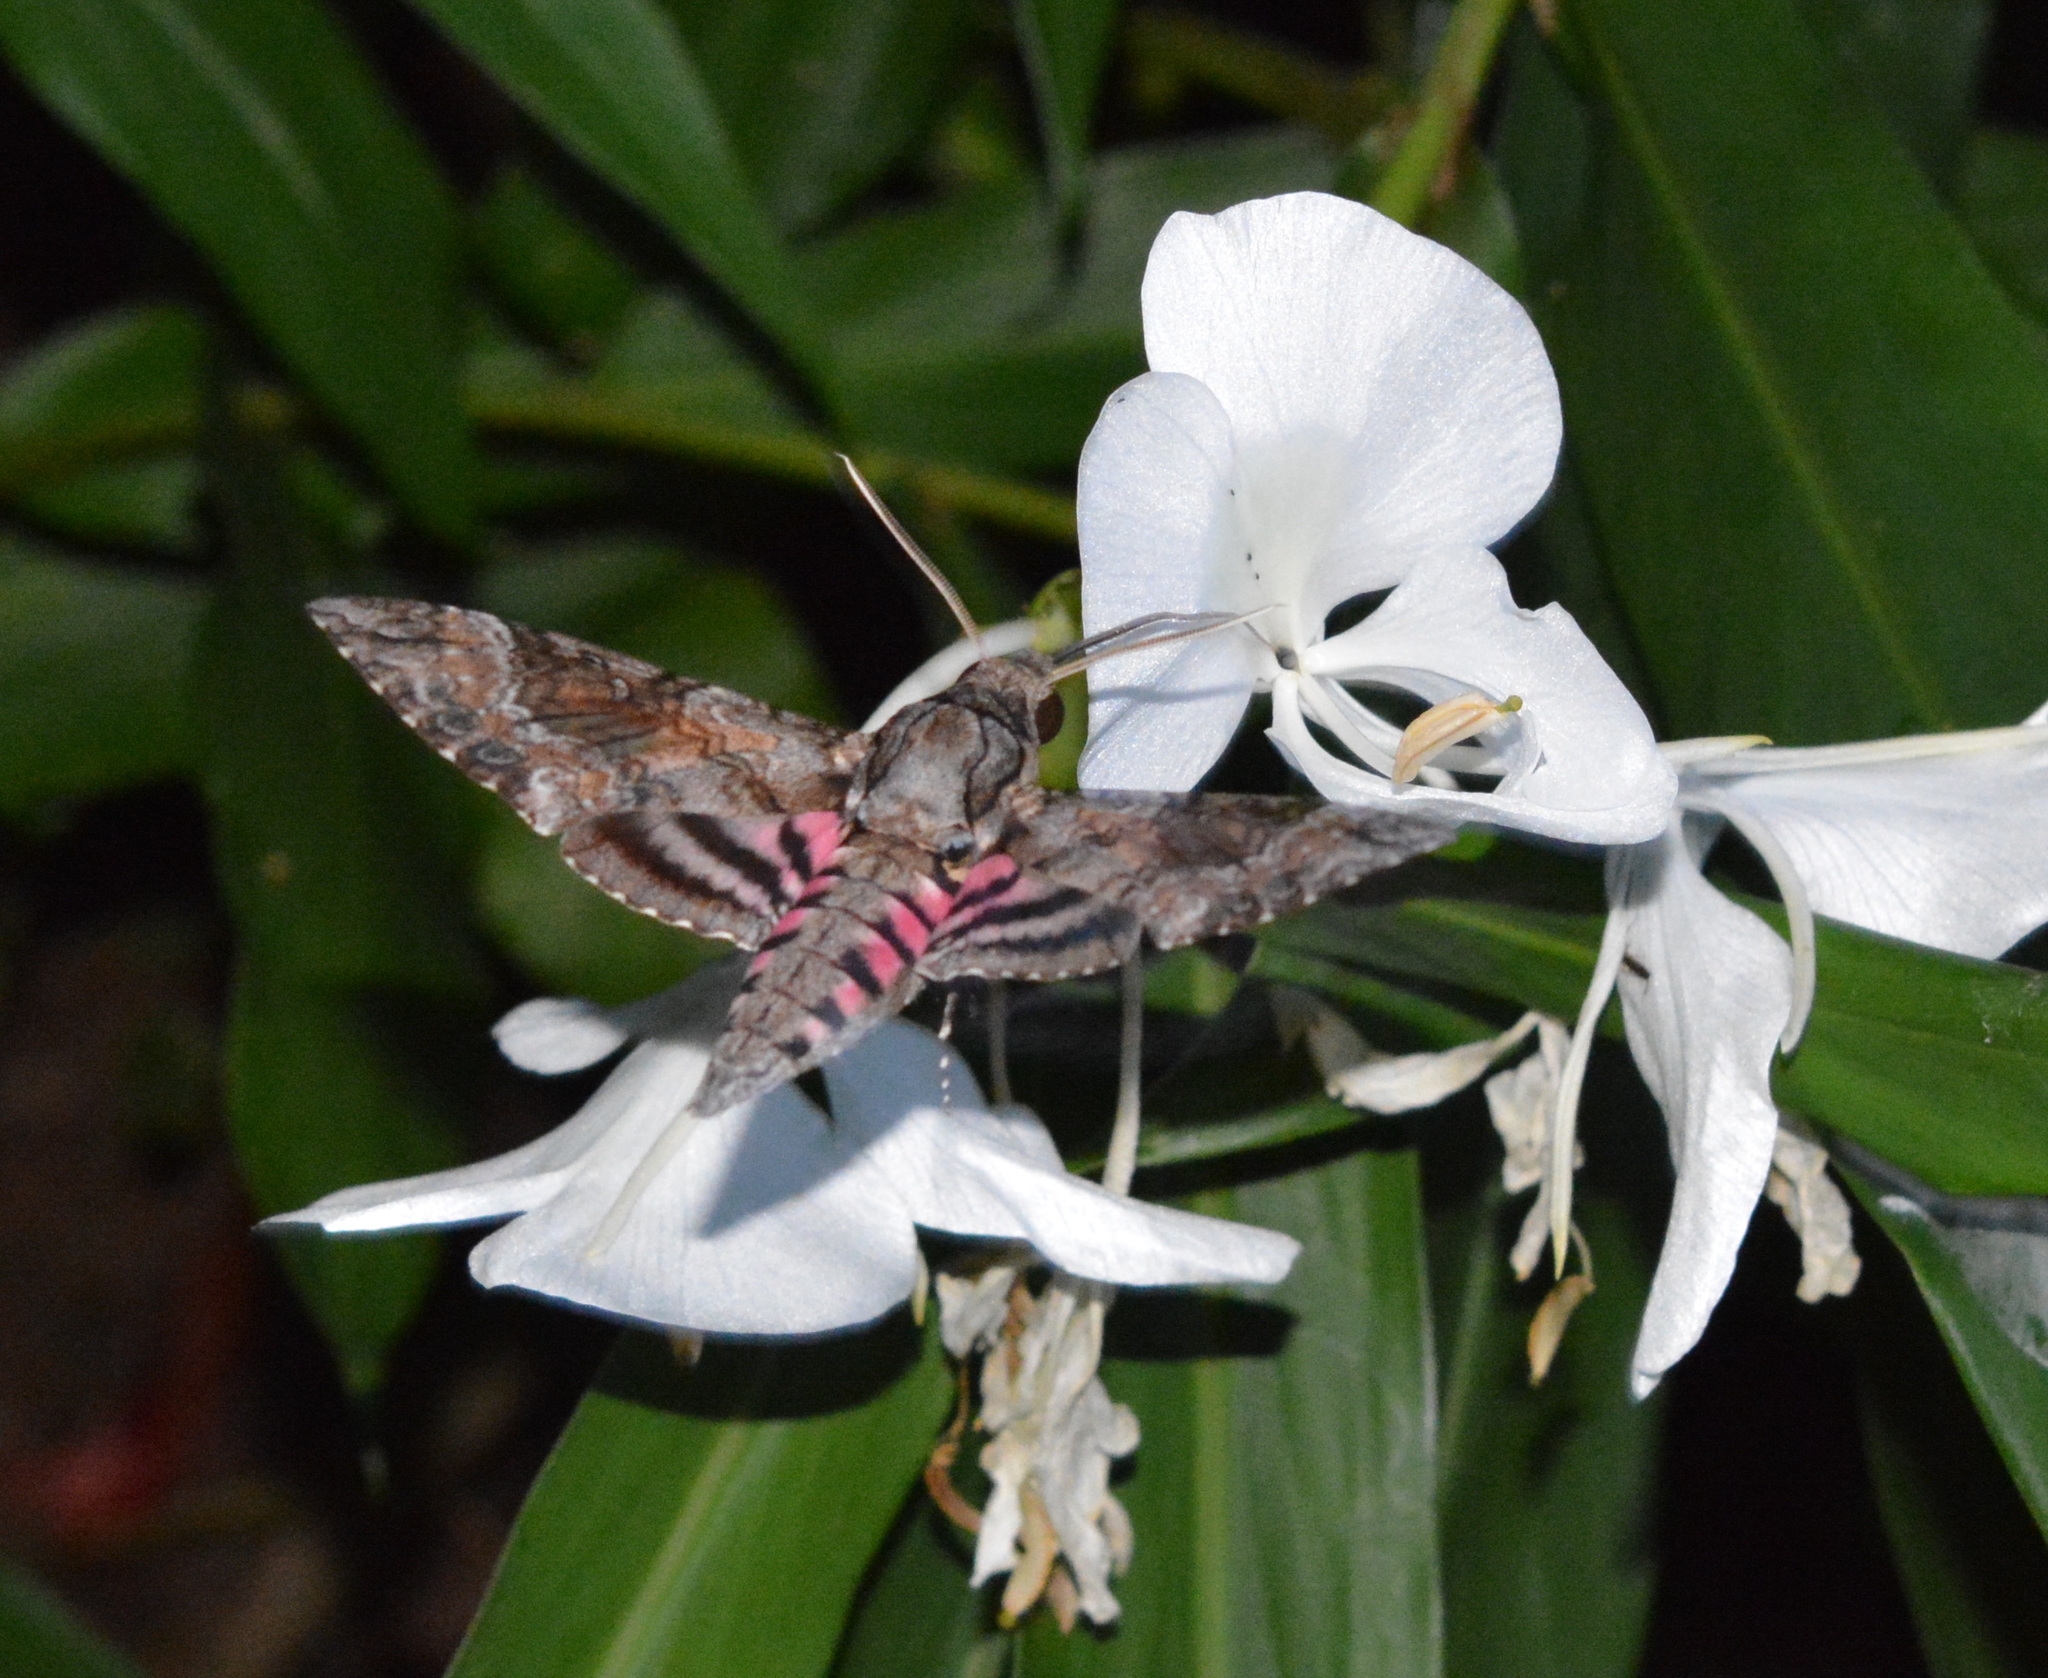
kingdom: Animalia
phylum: Arthropoda
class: Insecta
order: Lepidoptera
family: Sphingidae
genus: Agrius
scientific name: Agrius cingulata
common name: Pink-spotted hawkmoth
